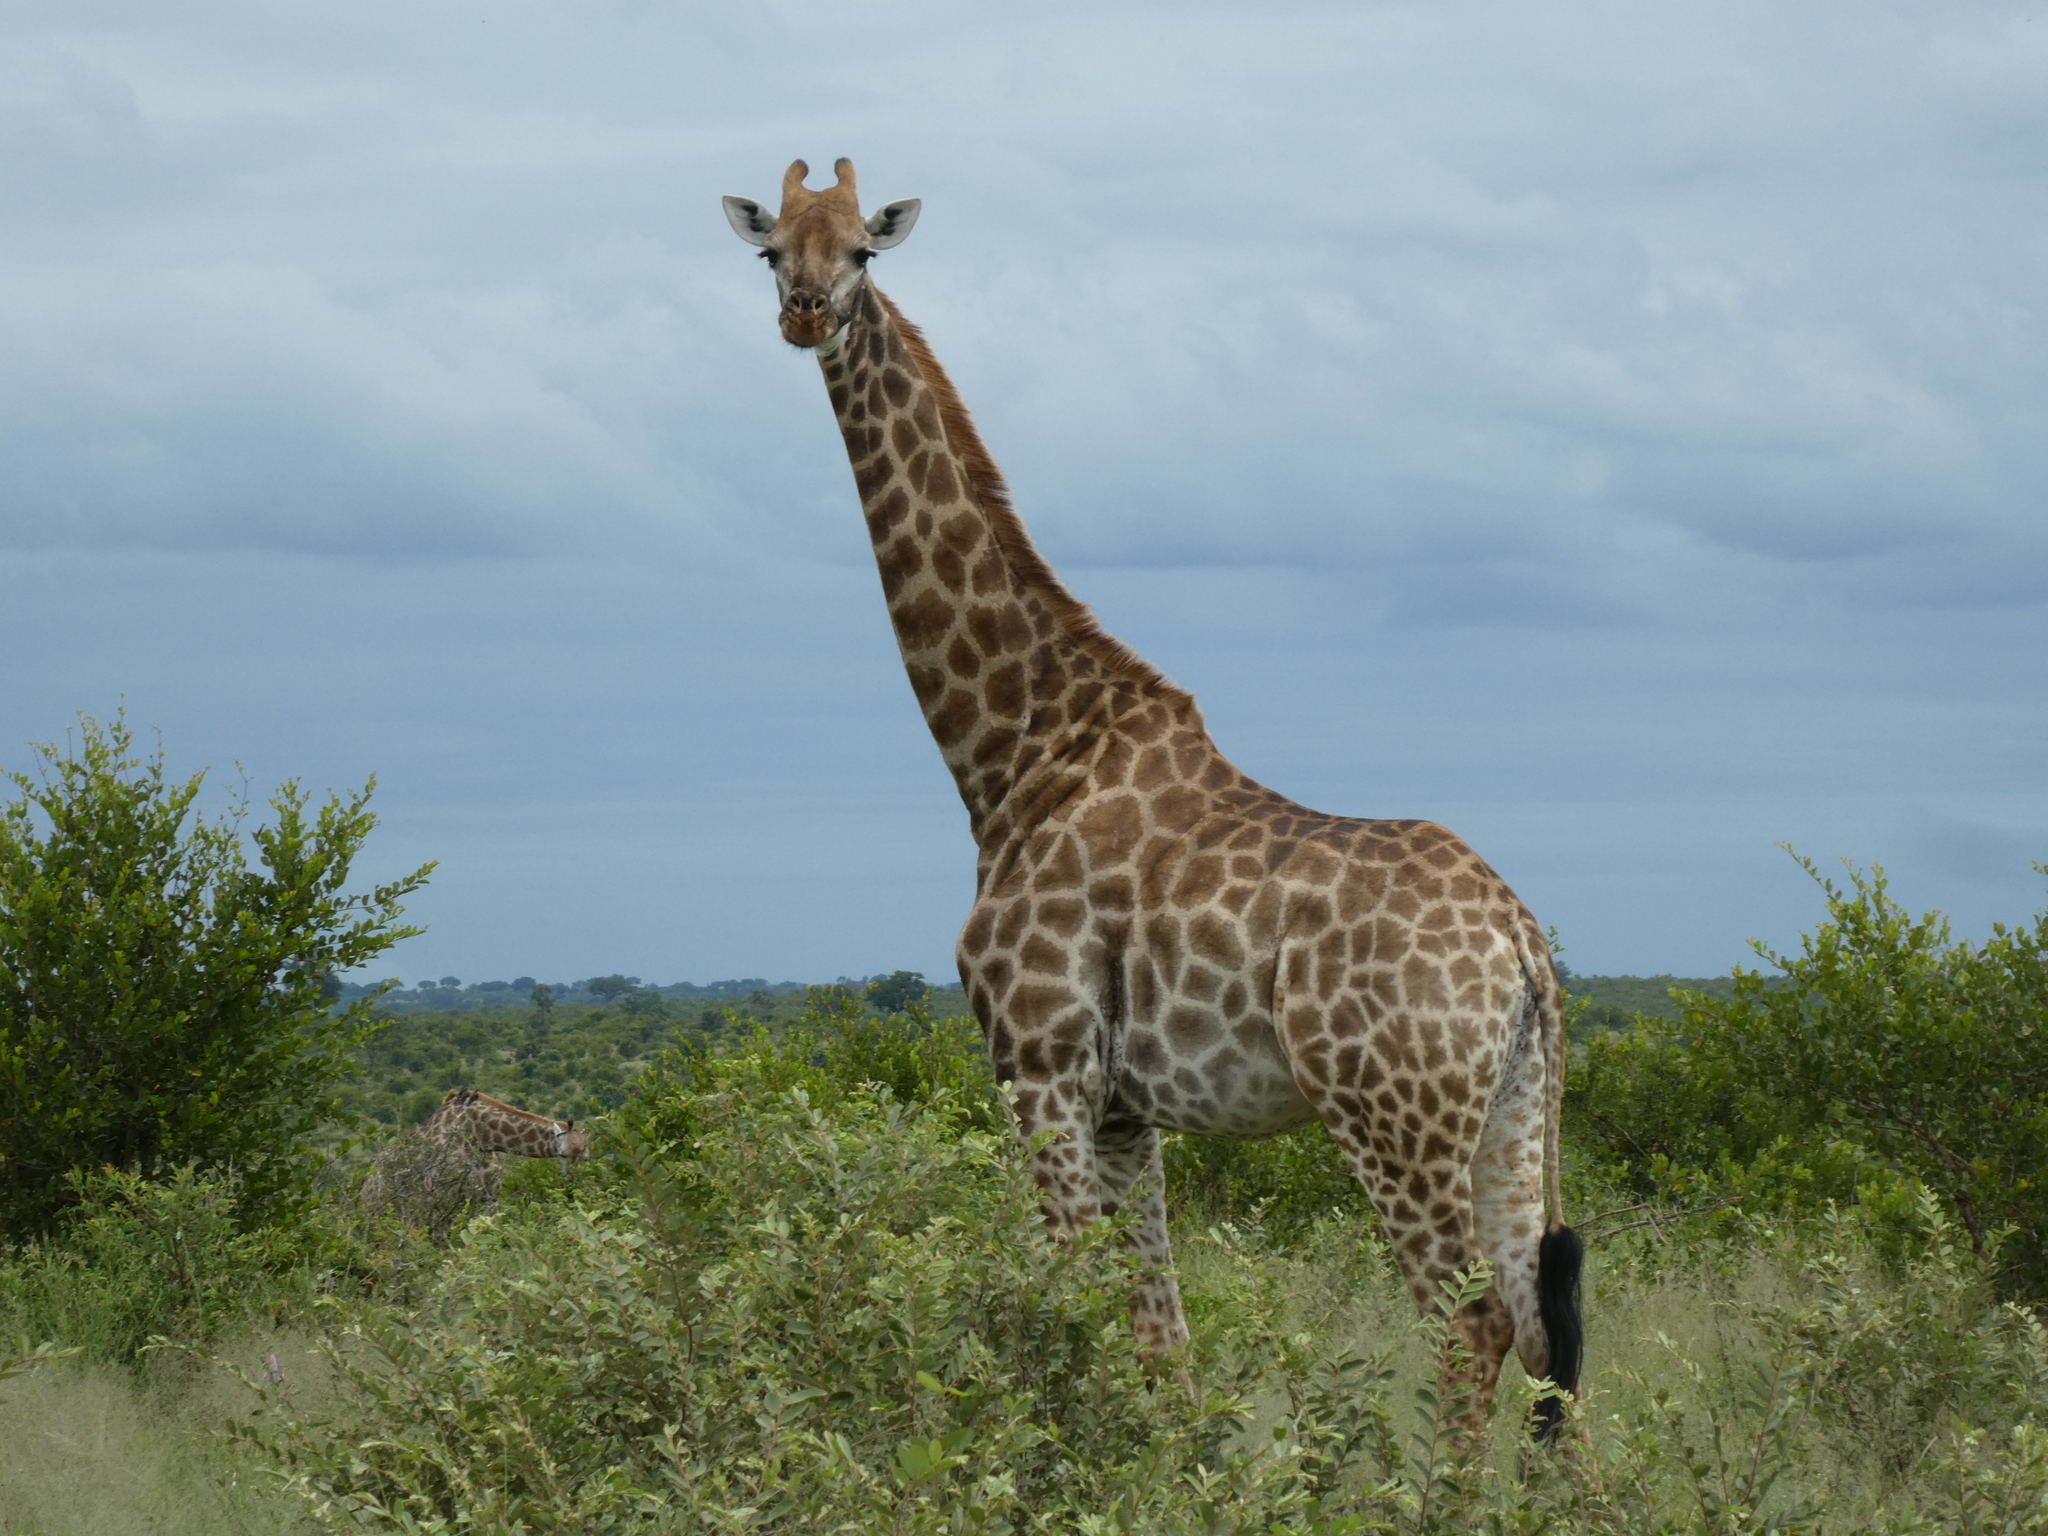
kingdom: Animalia
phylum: Chordata
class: Mammalia
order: Artiodactyla
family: Giraffidae
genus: Giraffa
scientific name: Giraffa giraffa
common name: Southern giraffe
